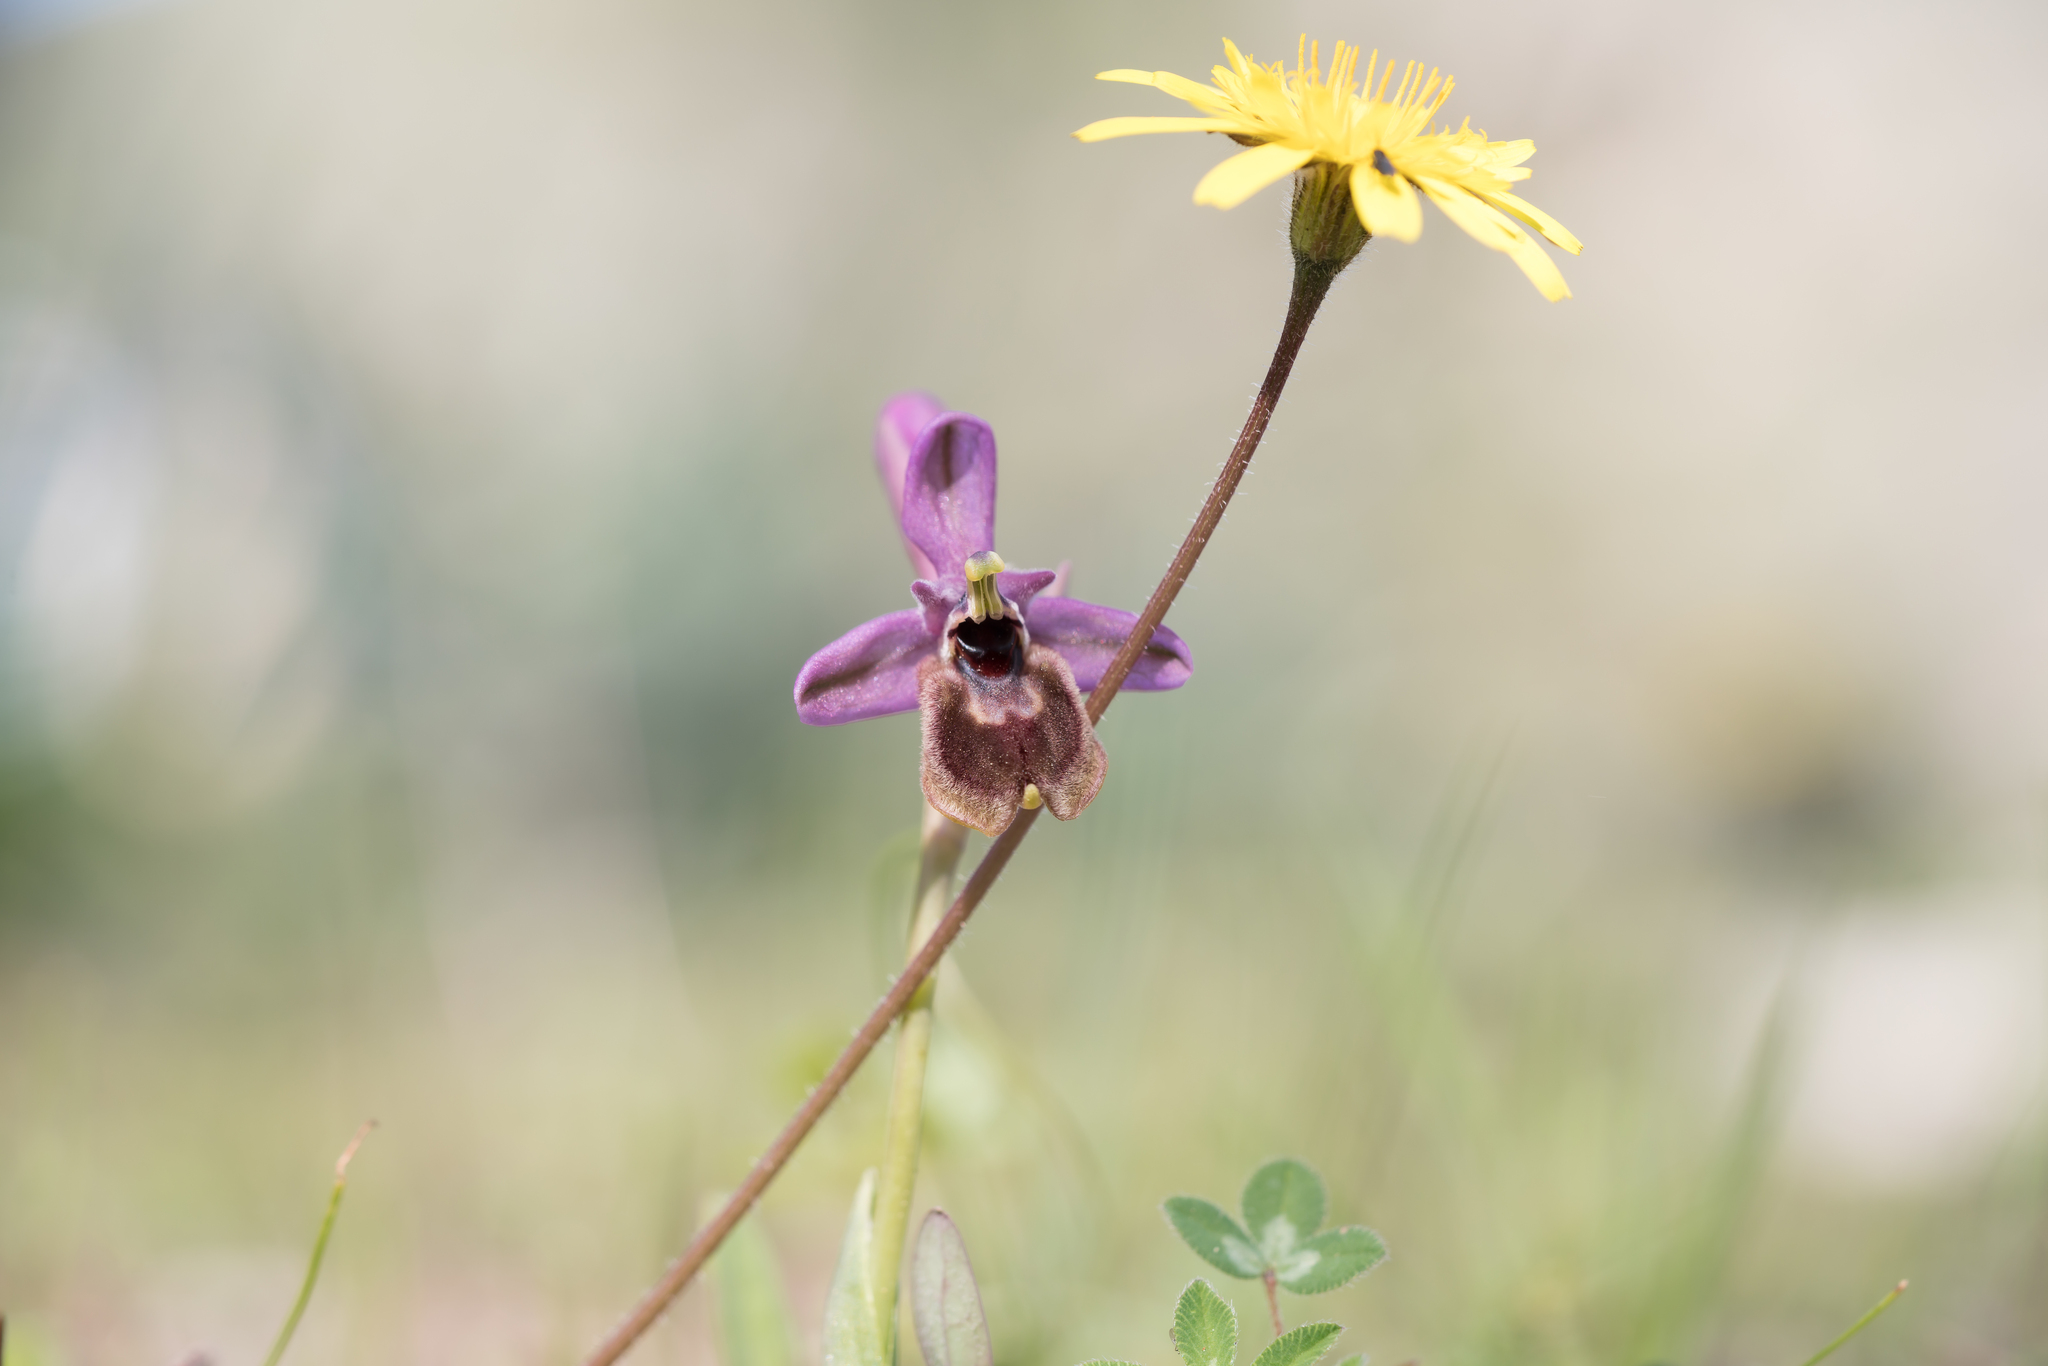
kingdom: Plantae
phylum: Tracheophyta
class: Liliopsida
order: Asparagales
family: Orchidaceae
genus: Ophrys
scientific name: Ophrys tenthredinifera
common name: Sawfly orchid
